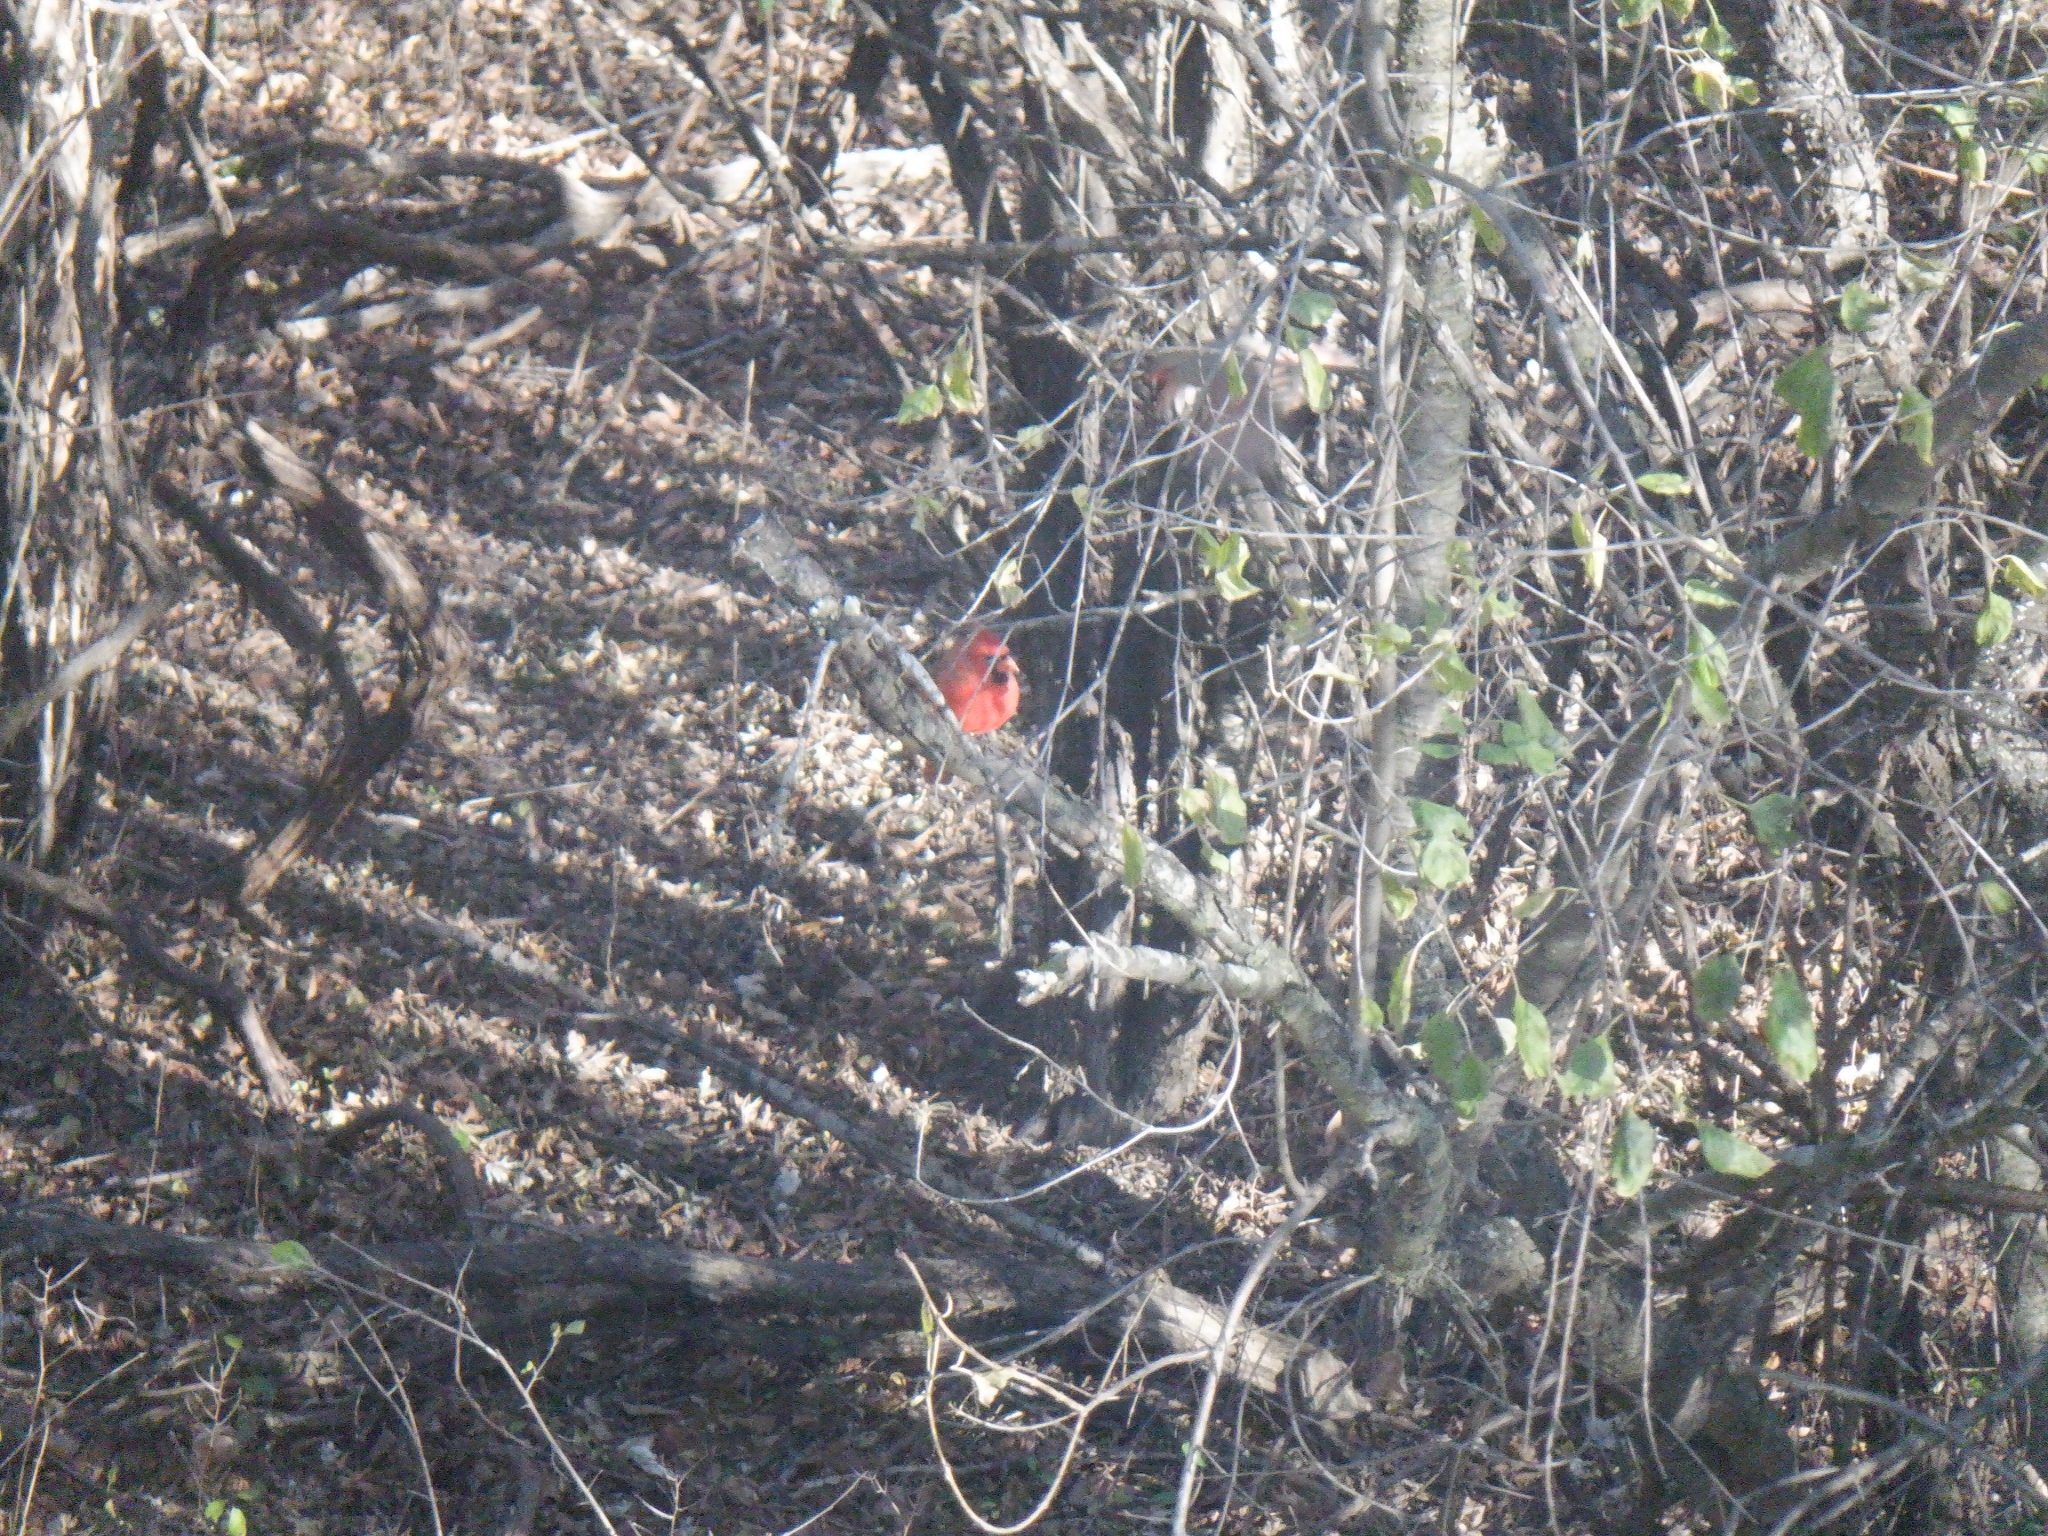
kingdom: Animalia
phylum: Chordata
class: Aves
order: Passeriformes
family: Cardinalidae
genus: Cardinalis
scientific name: Cardinalis cardinalis
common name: Northern cardinal
